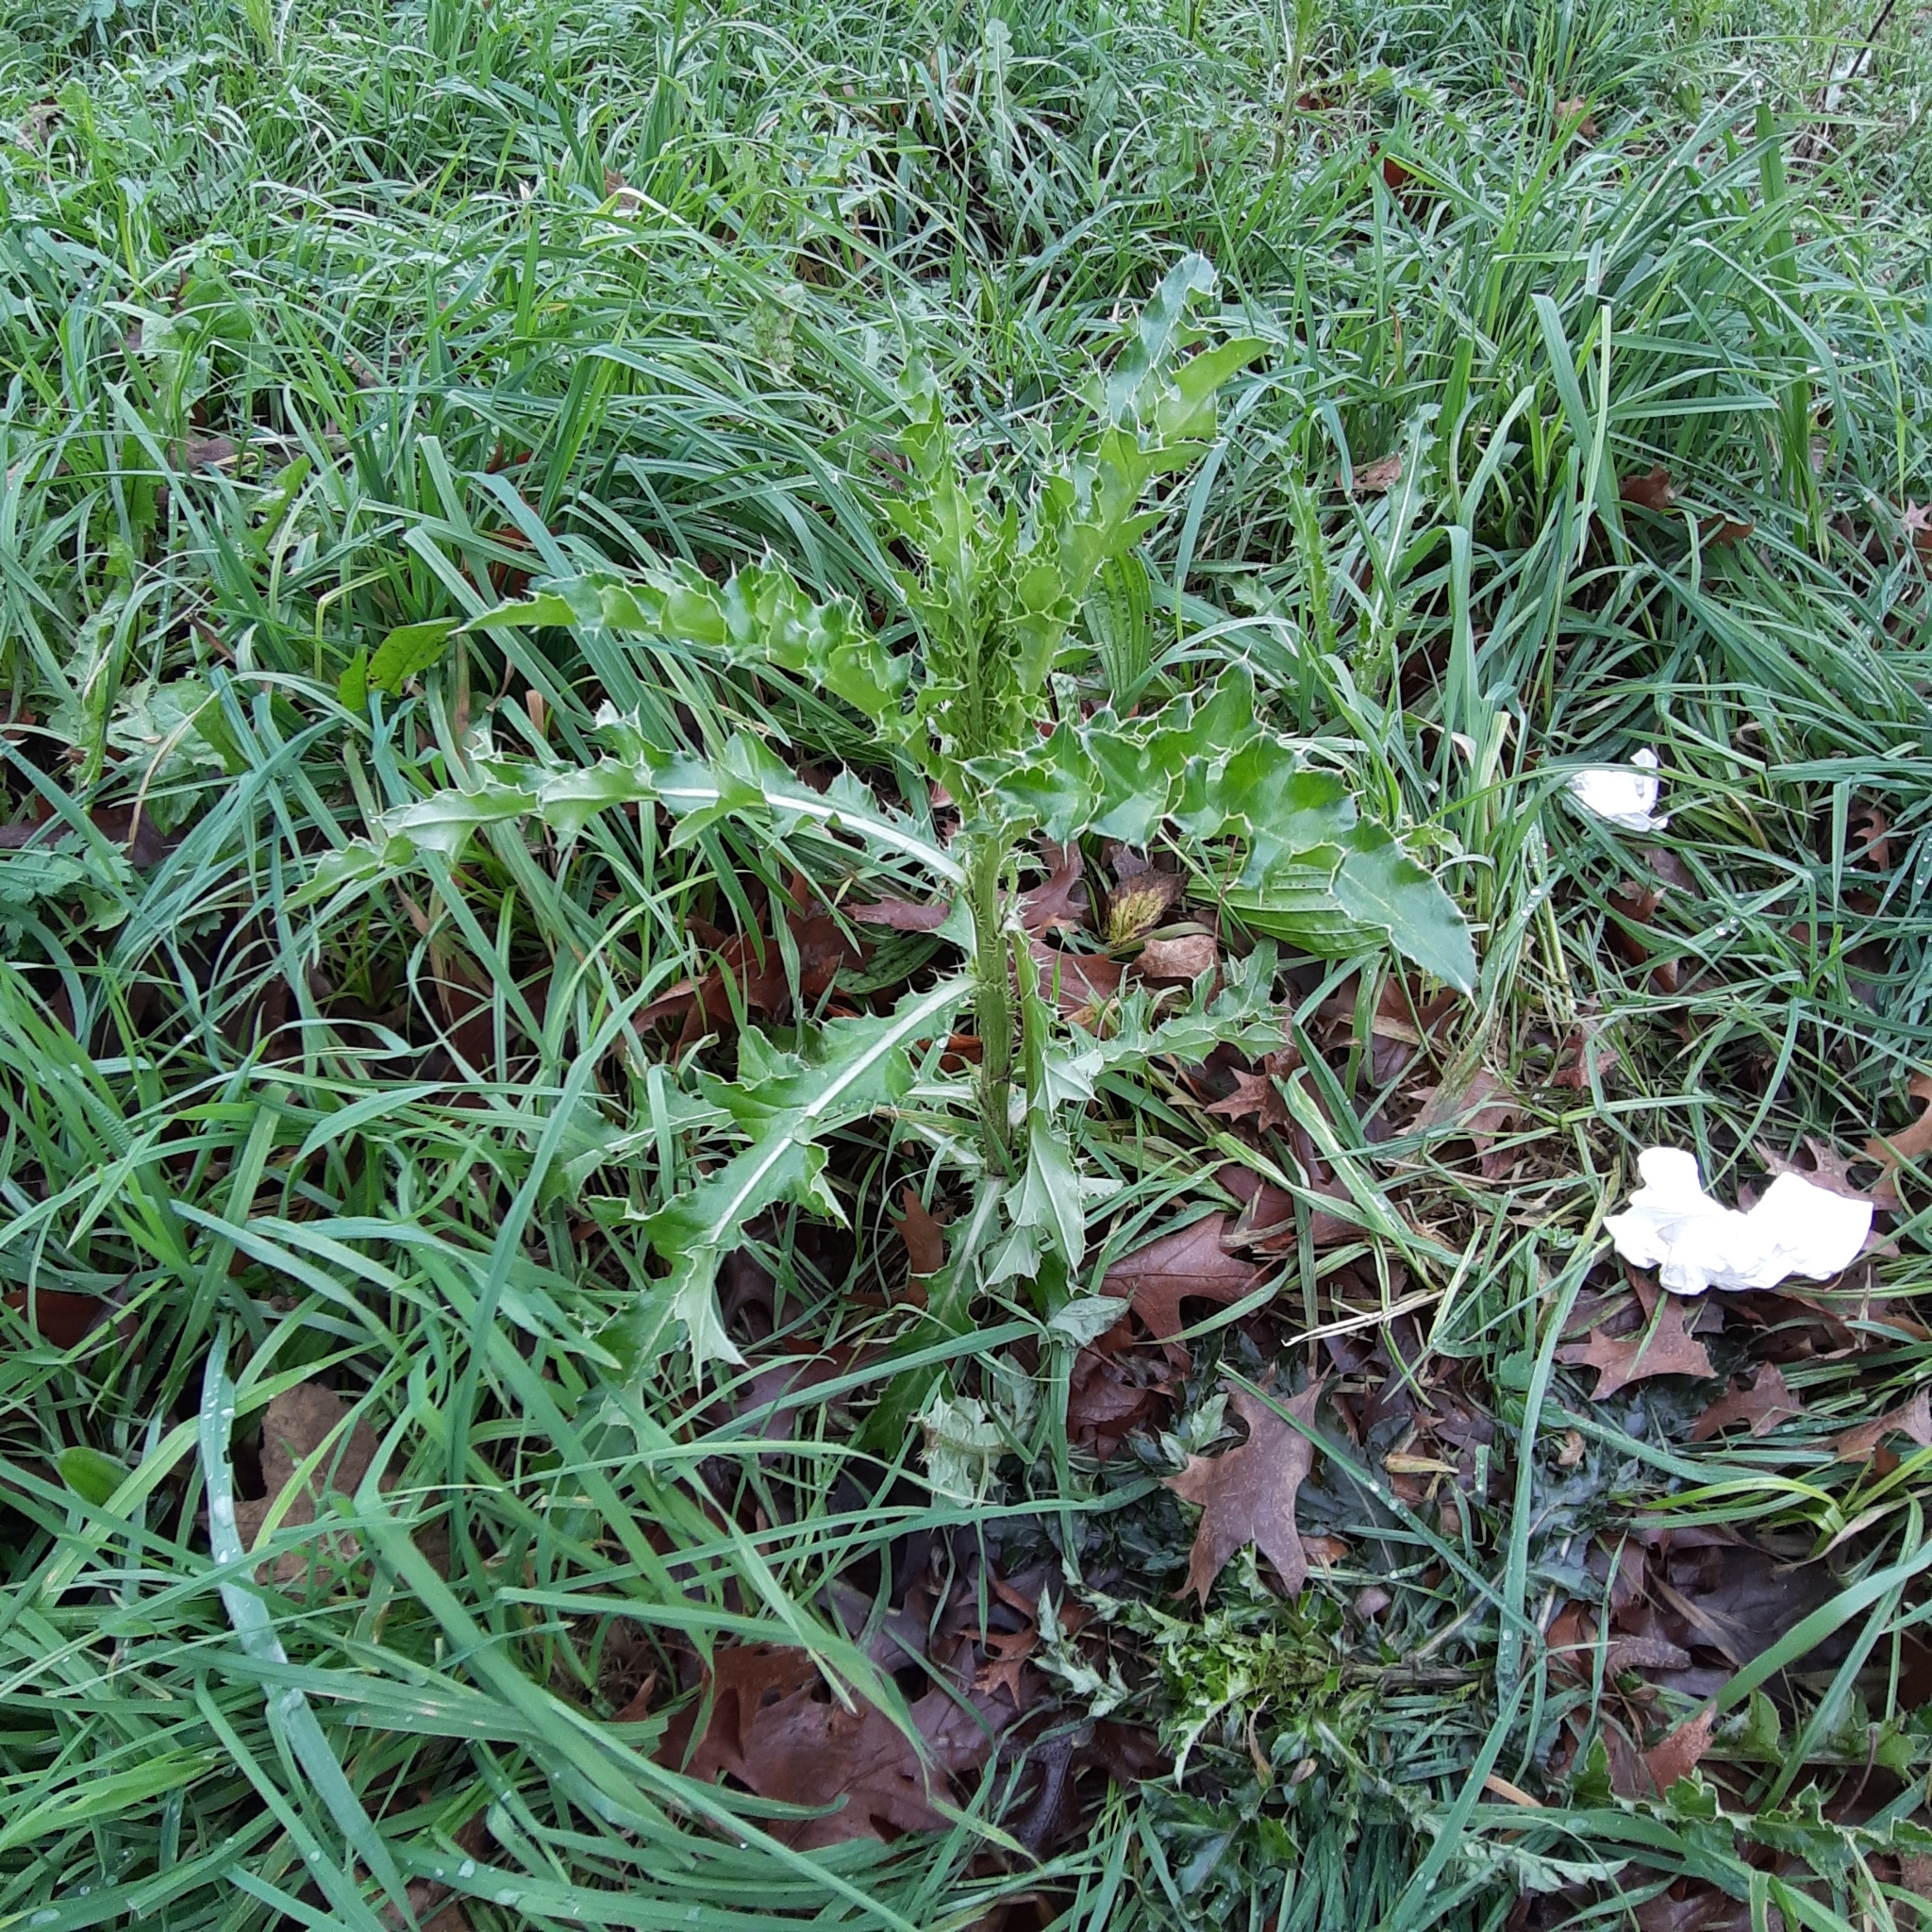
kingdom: Plantae
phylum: Tracheophyta
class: Magnoliopsida
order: Asterales
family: Asteraceae
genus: Cirsium
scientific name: Cirsium arvense
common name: Creeping thistle
